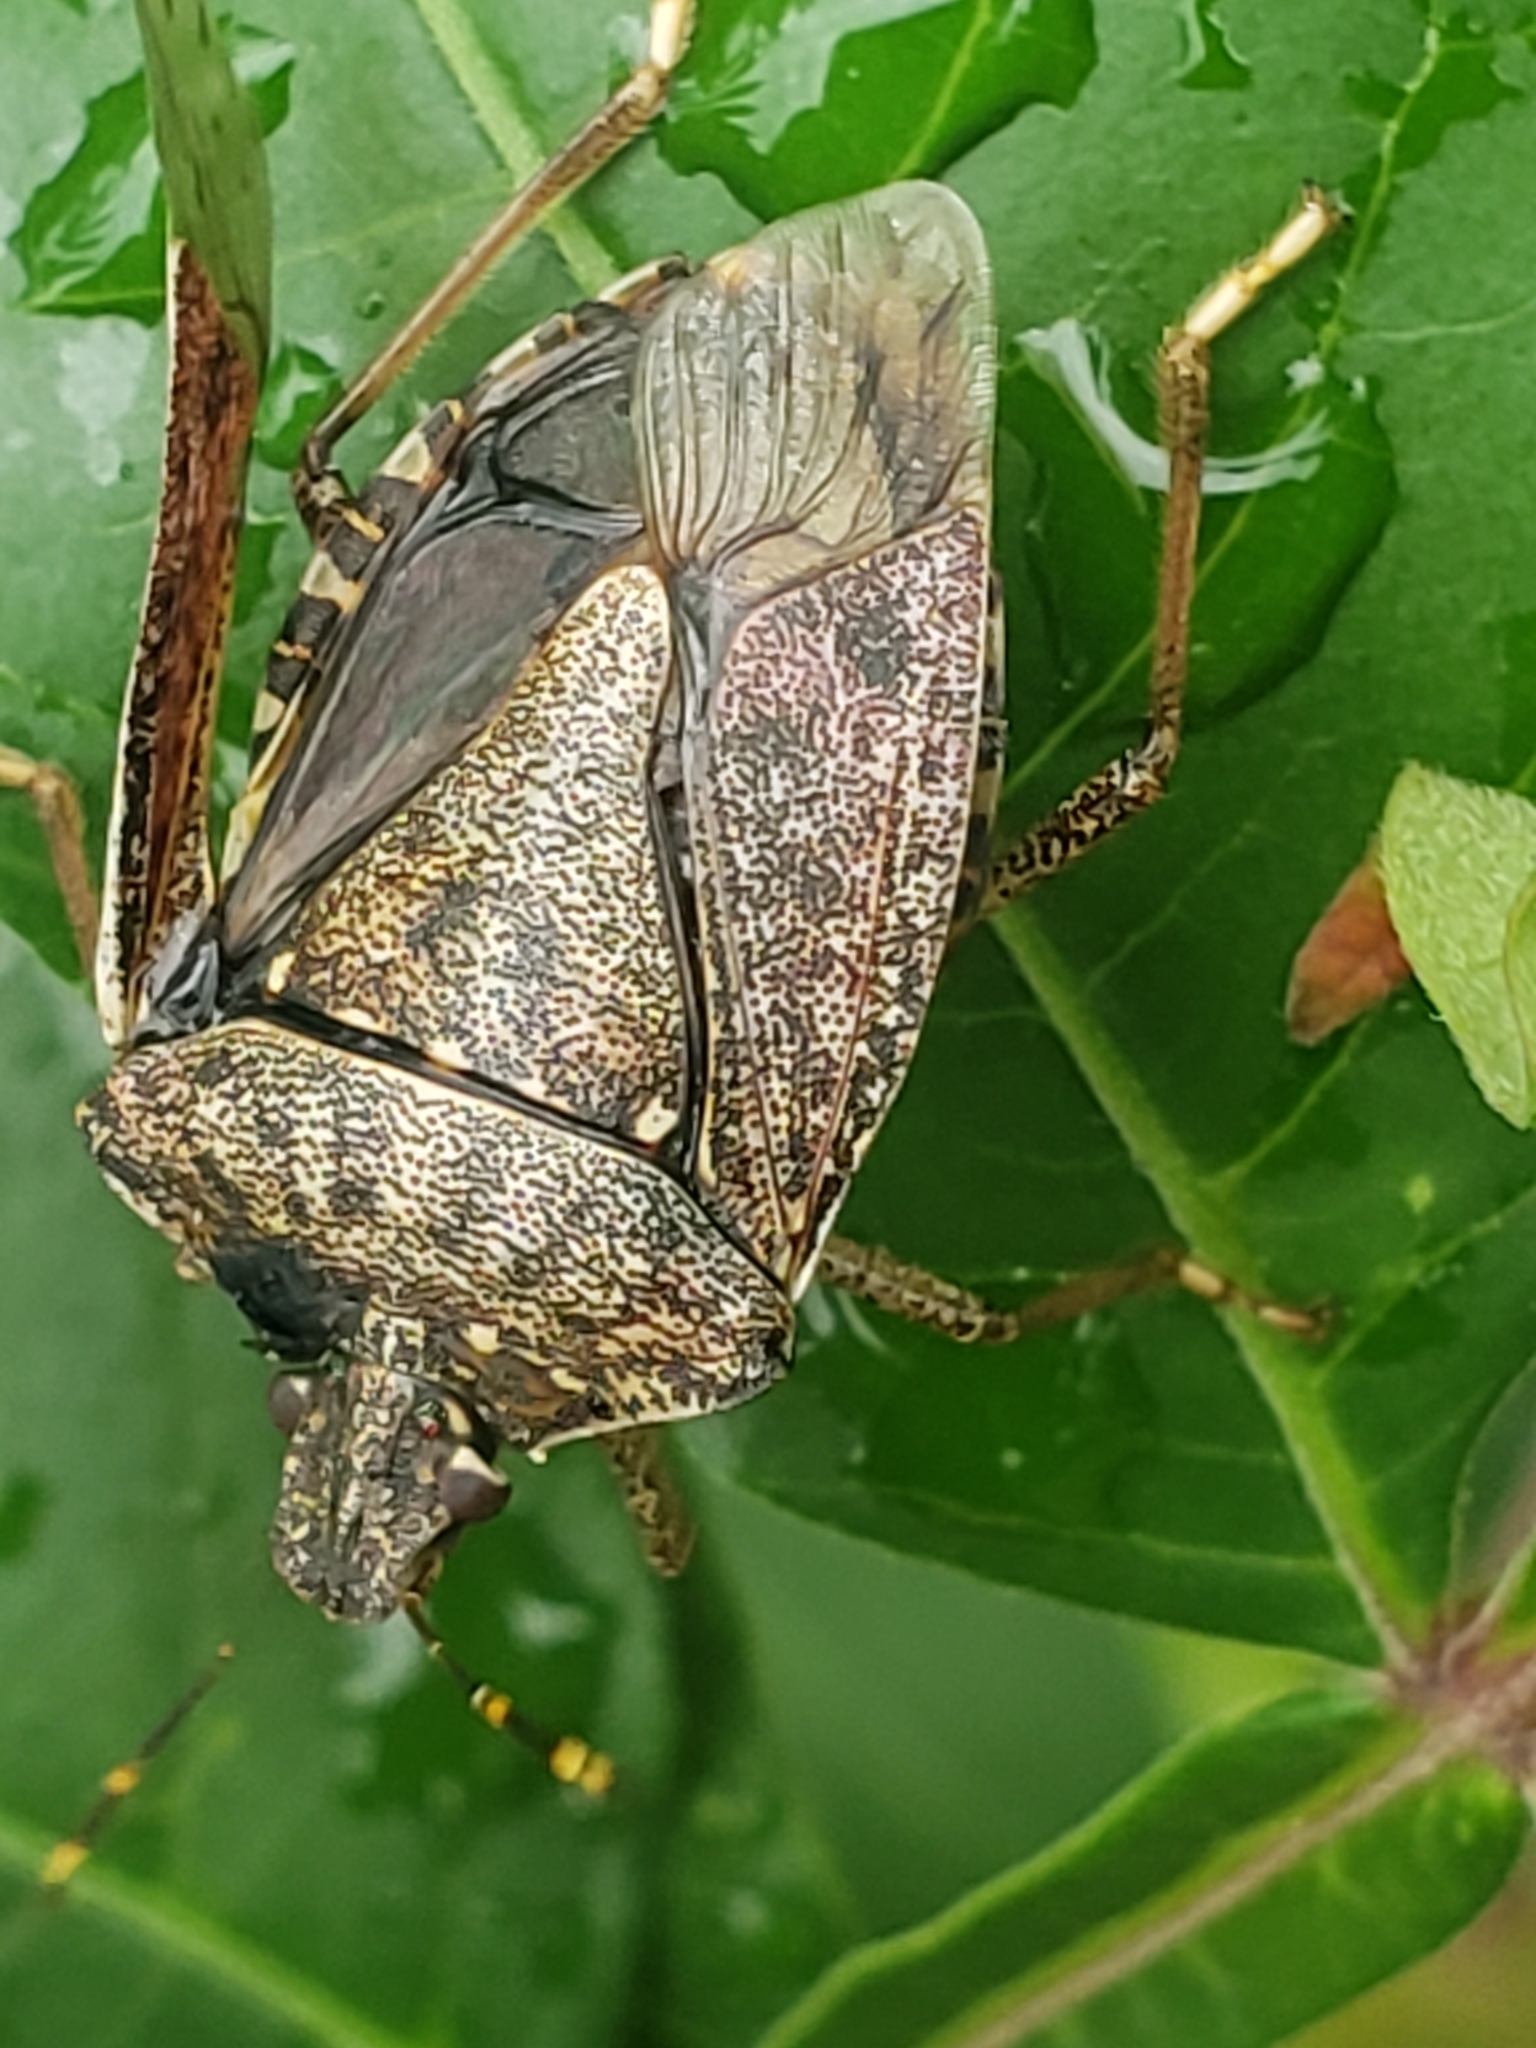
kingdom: Animalia
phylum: Arthropoda
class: Insecta
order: Hemiptera
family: Pentatomidae
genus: Halyomorpha
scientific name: Halyomorpha halys
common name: Brown marmorated stink bug
